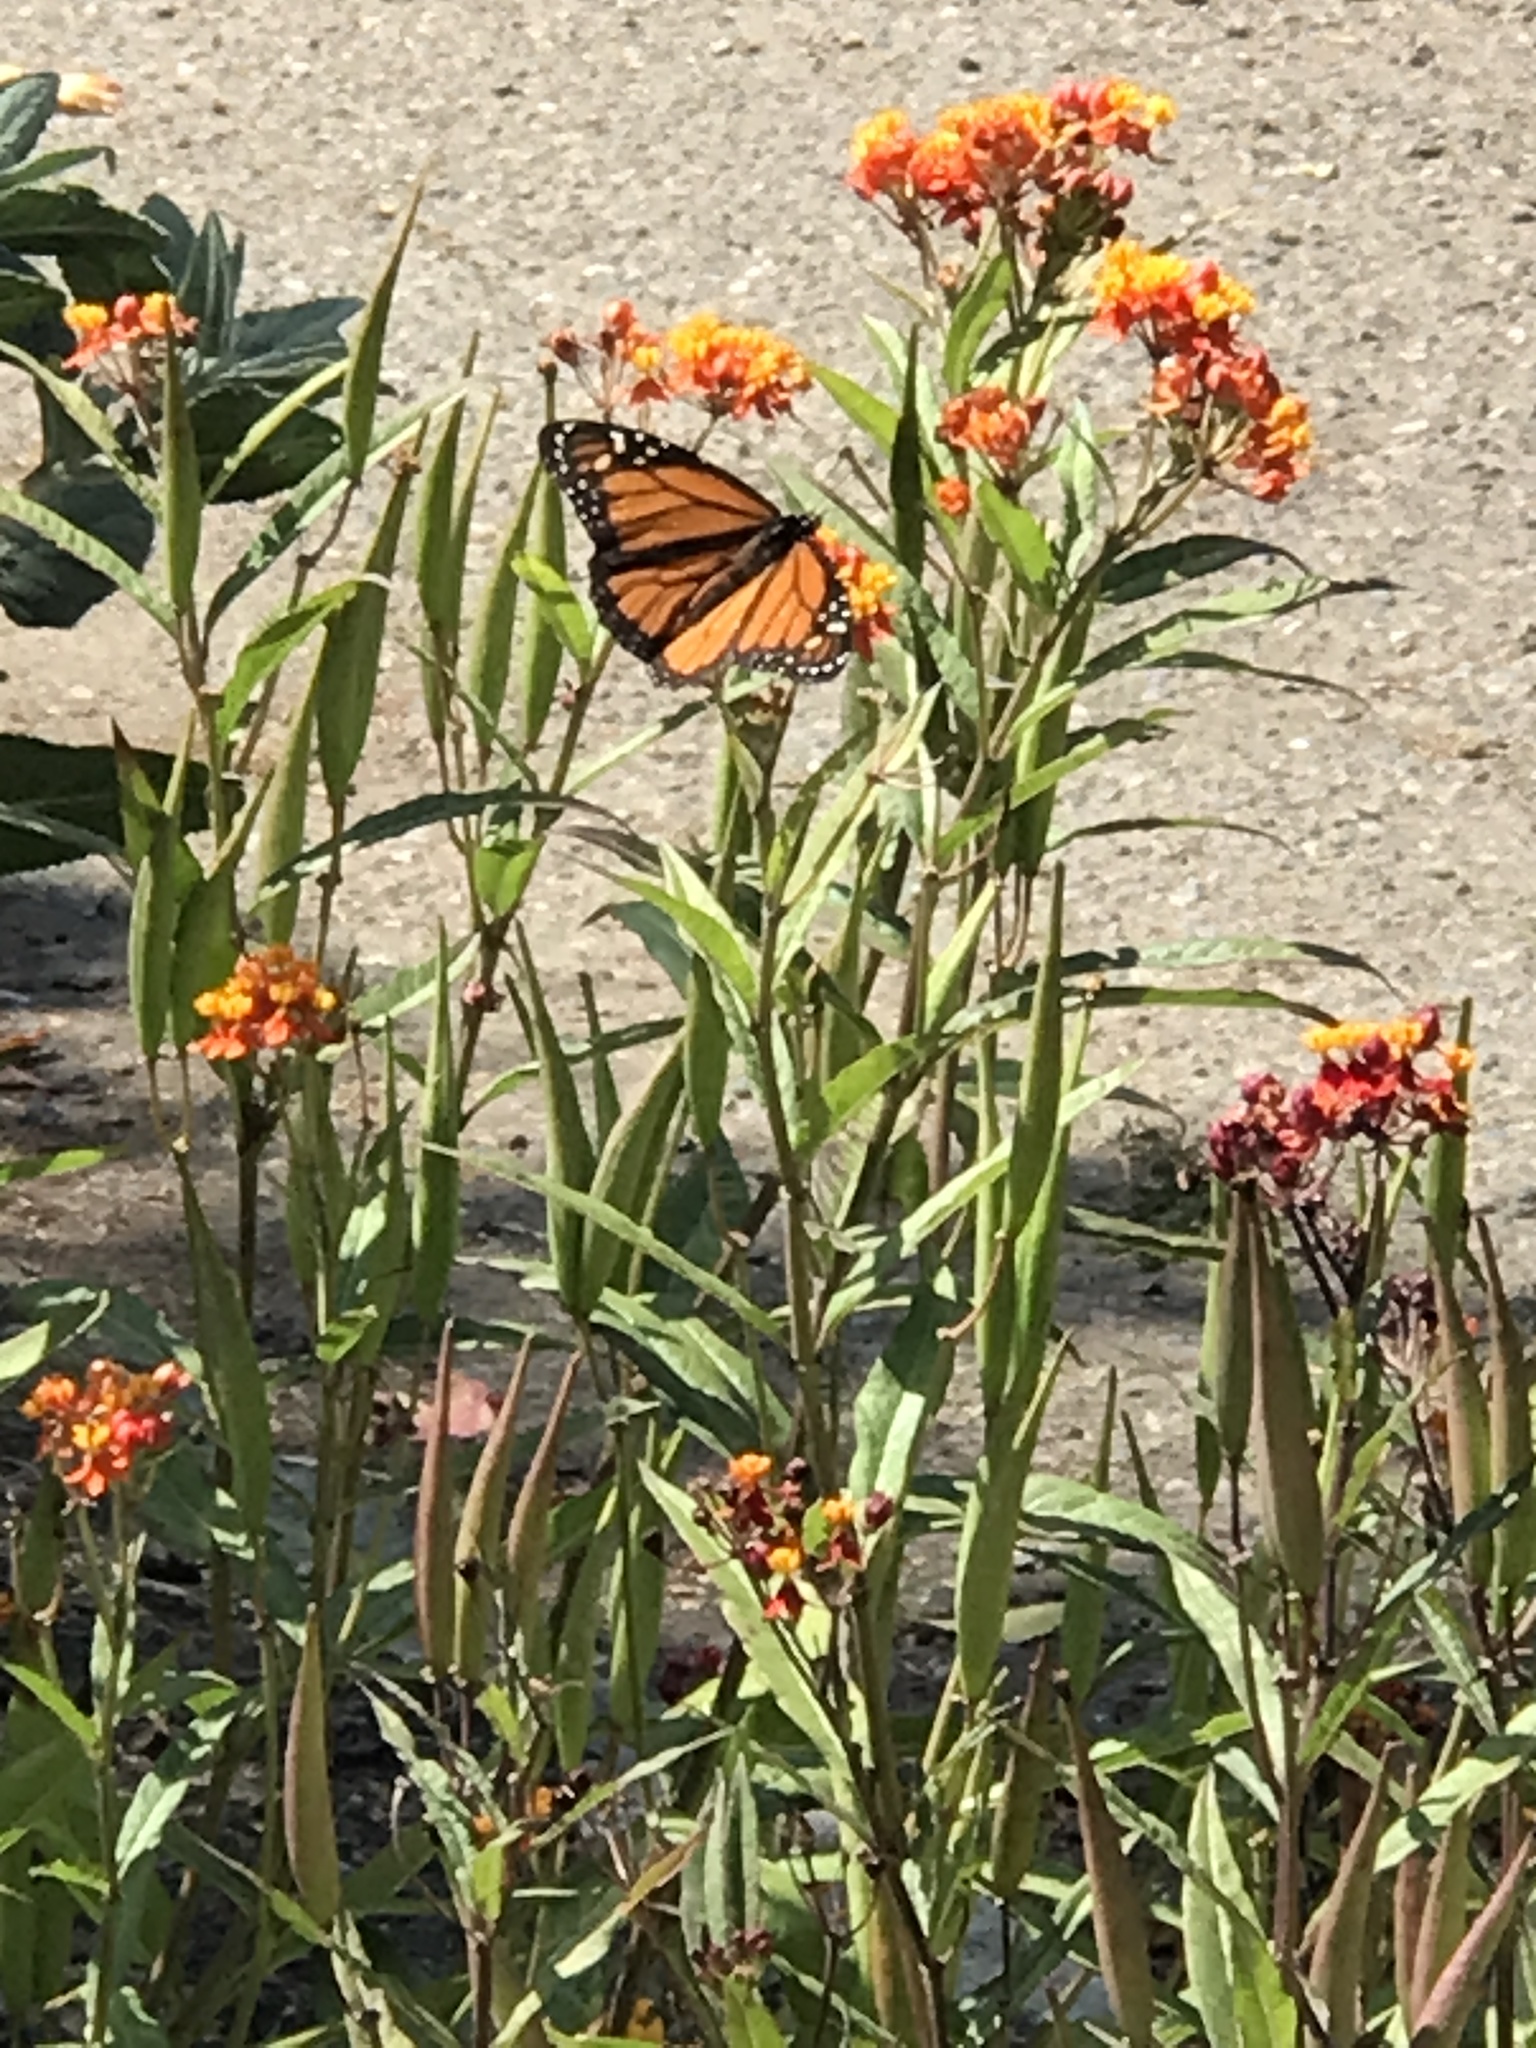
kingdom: Animalia
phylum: Arthropoda
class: Insecta
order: Lepidoptera
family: Nymphalidae
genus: Danaus
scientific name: Danaus plexippus
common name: Monarch
